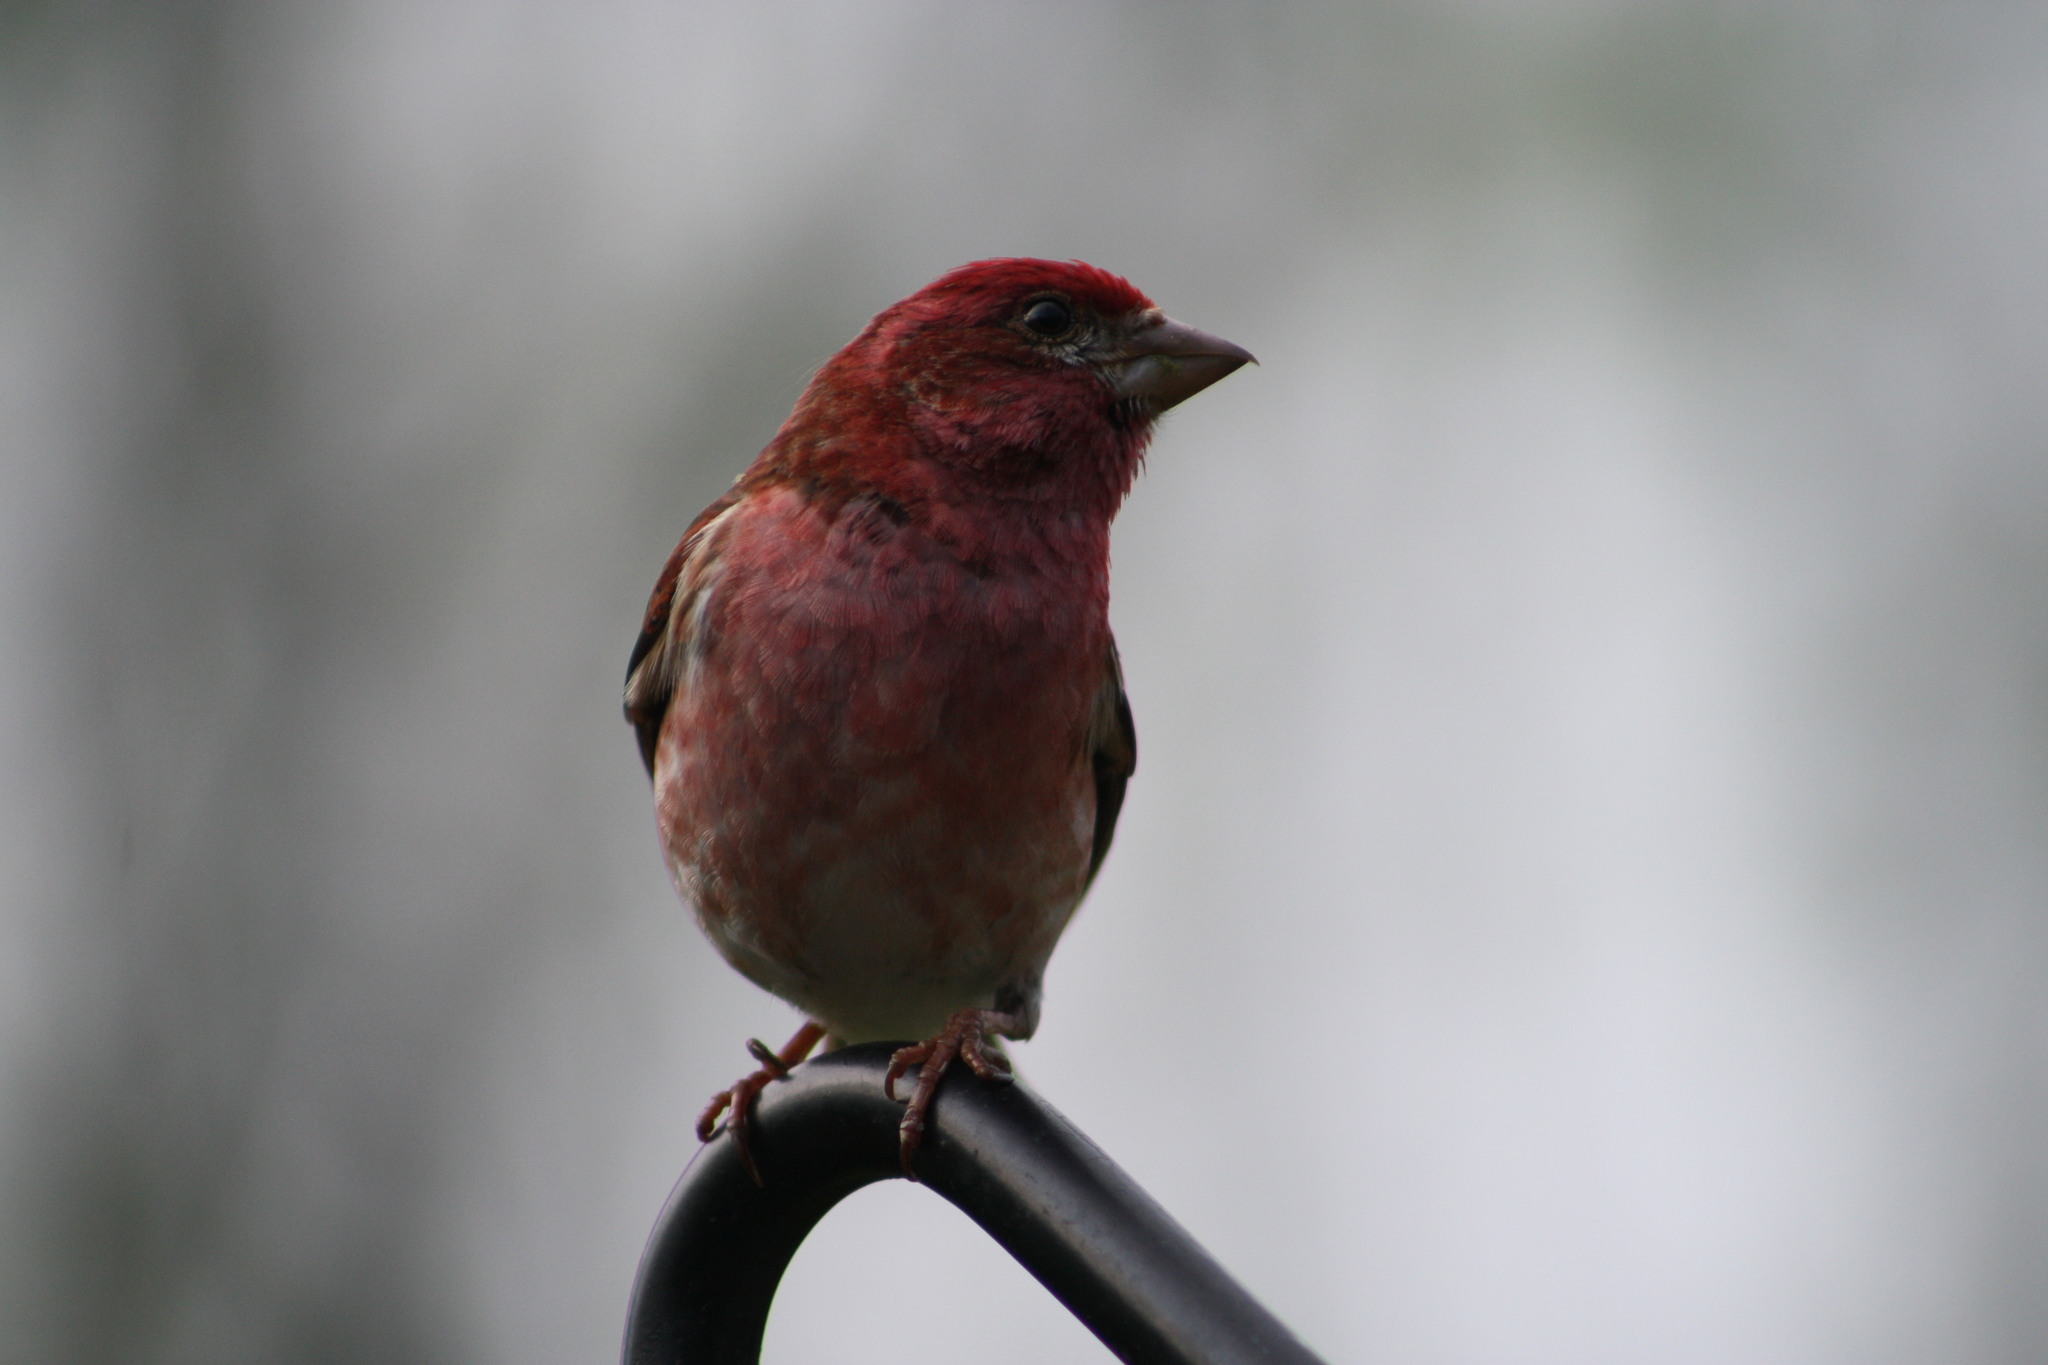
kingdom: Animalia
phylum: Chordata
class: Aves
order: Passeriformes
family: Fringillidae
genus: Haemorhous
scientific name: Haemorhous purpureus
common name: Purple finch
